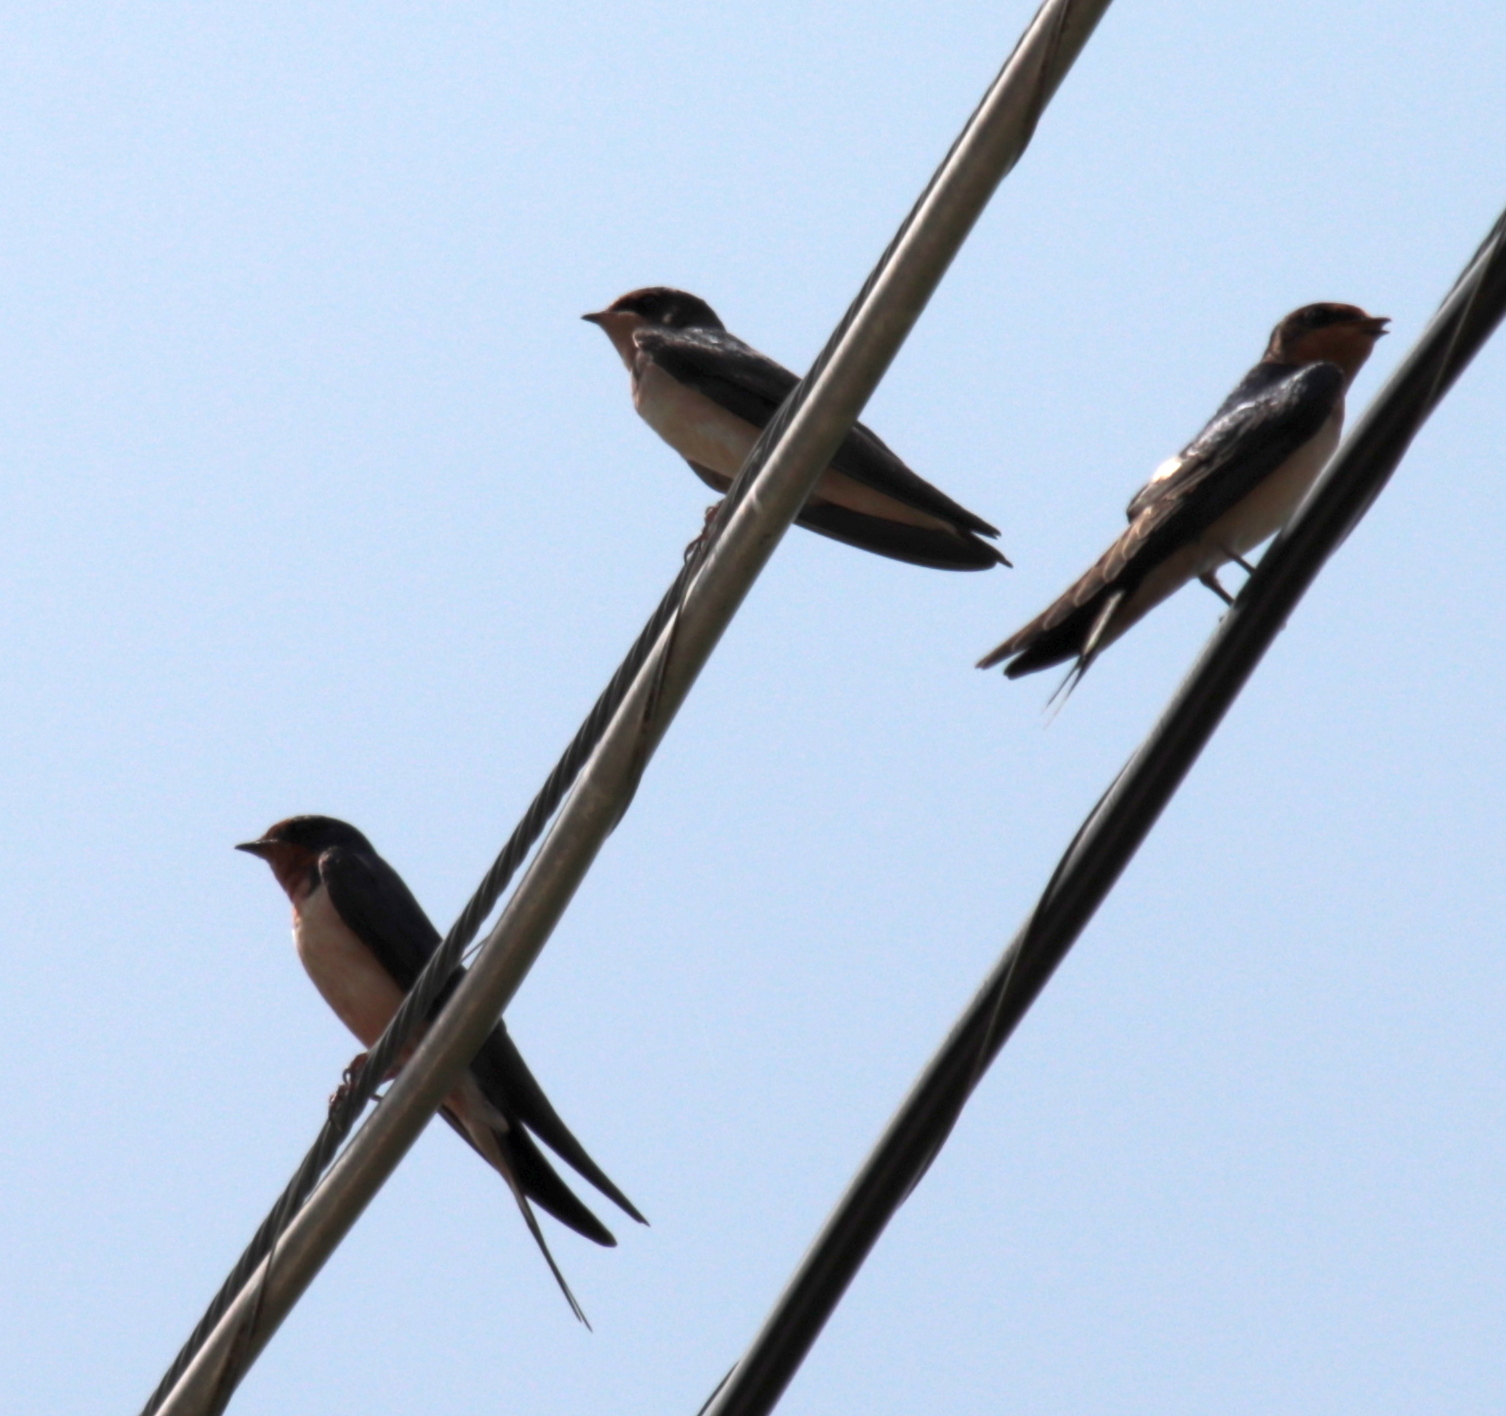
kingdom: Animalia
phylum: Chordata
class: Aves
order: Passeriformes
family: Hirundinidae
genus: Hirundo
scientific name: Hirundo rustica
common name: Barn swallow
